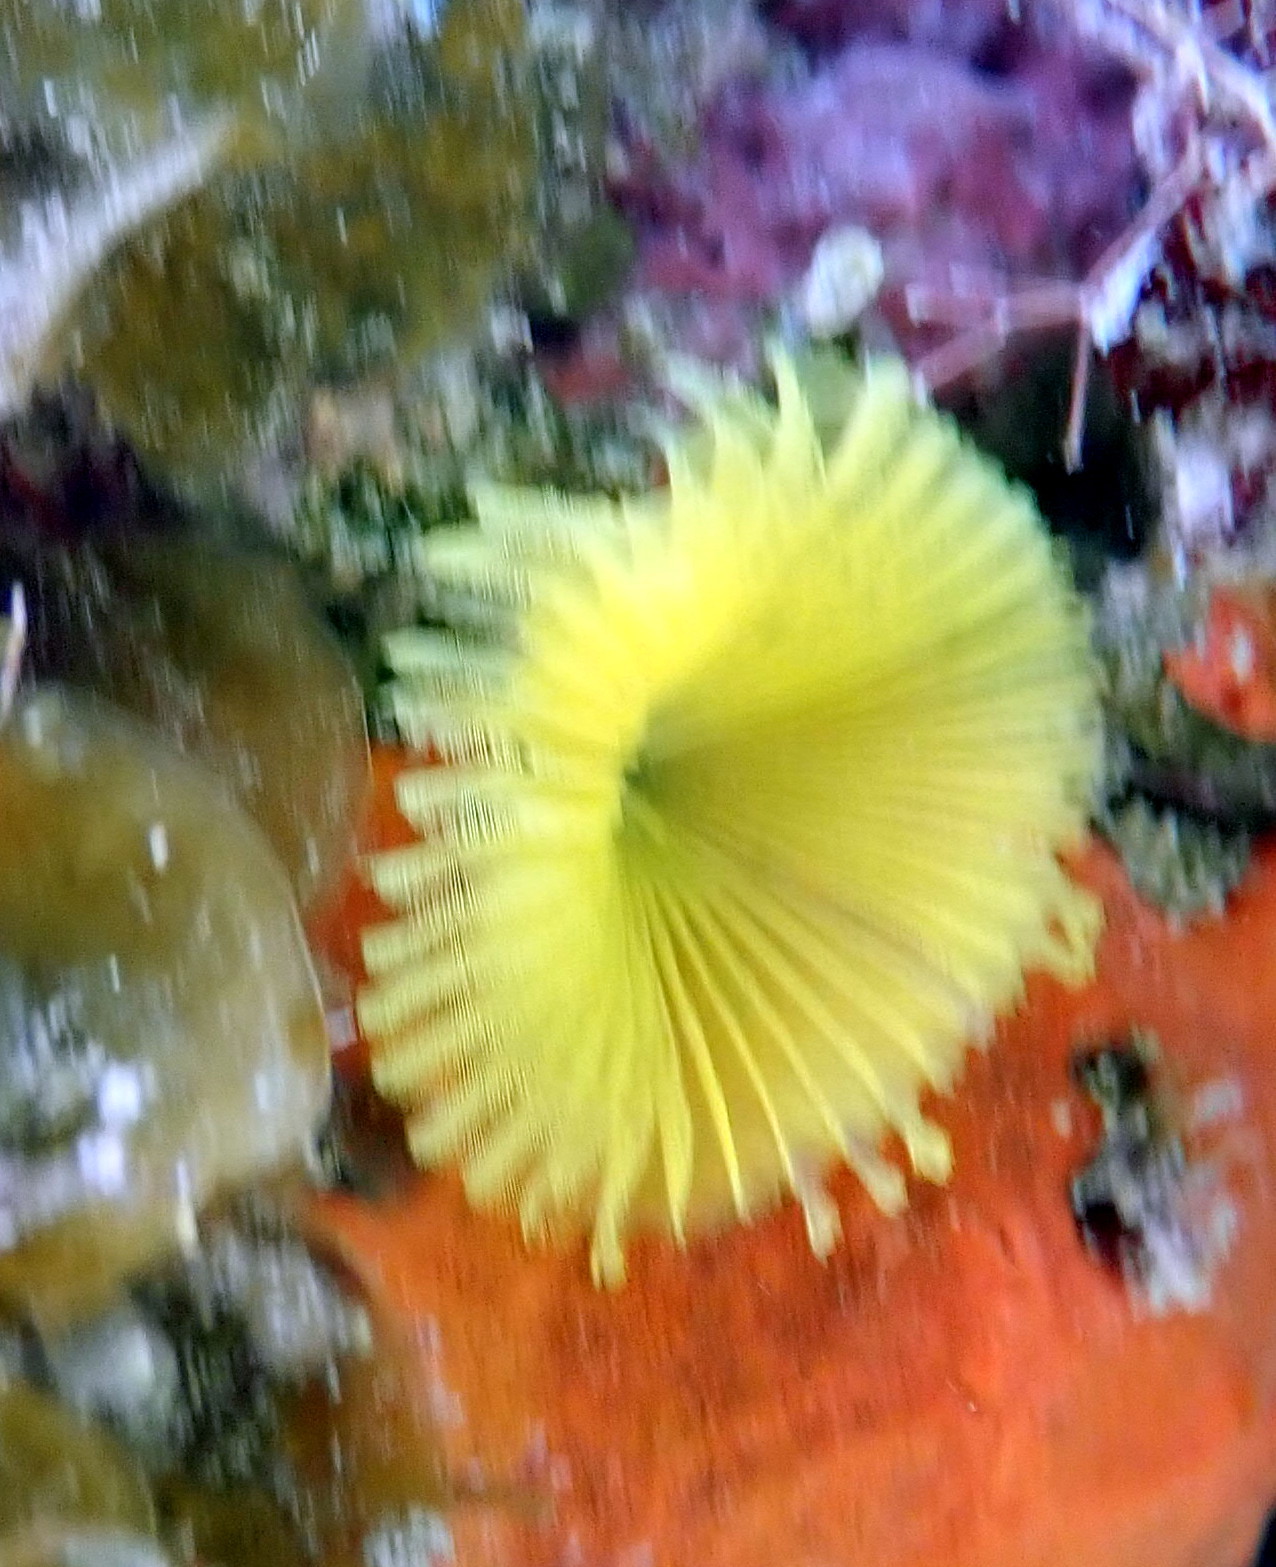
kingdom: Animalia
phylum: Annelida
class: Polychaeta
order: Sabellida
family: Sabellidae
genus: Notaulax
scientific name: Notaulax occidentalis
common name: Yellow fanworm
